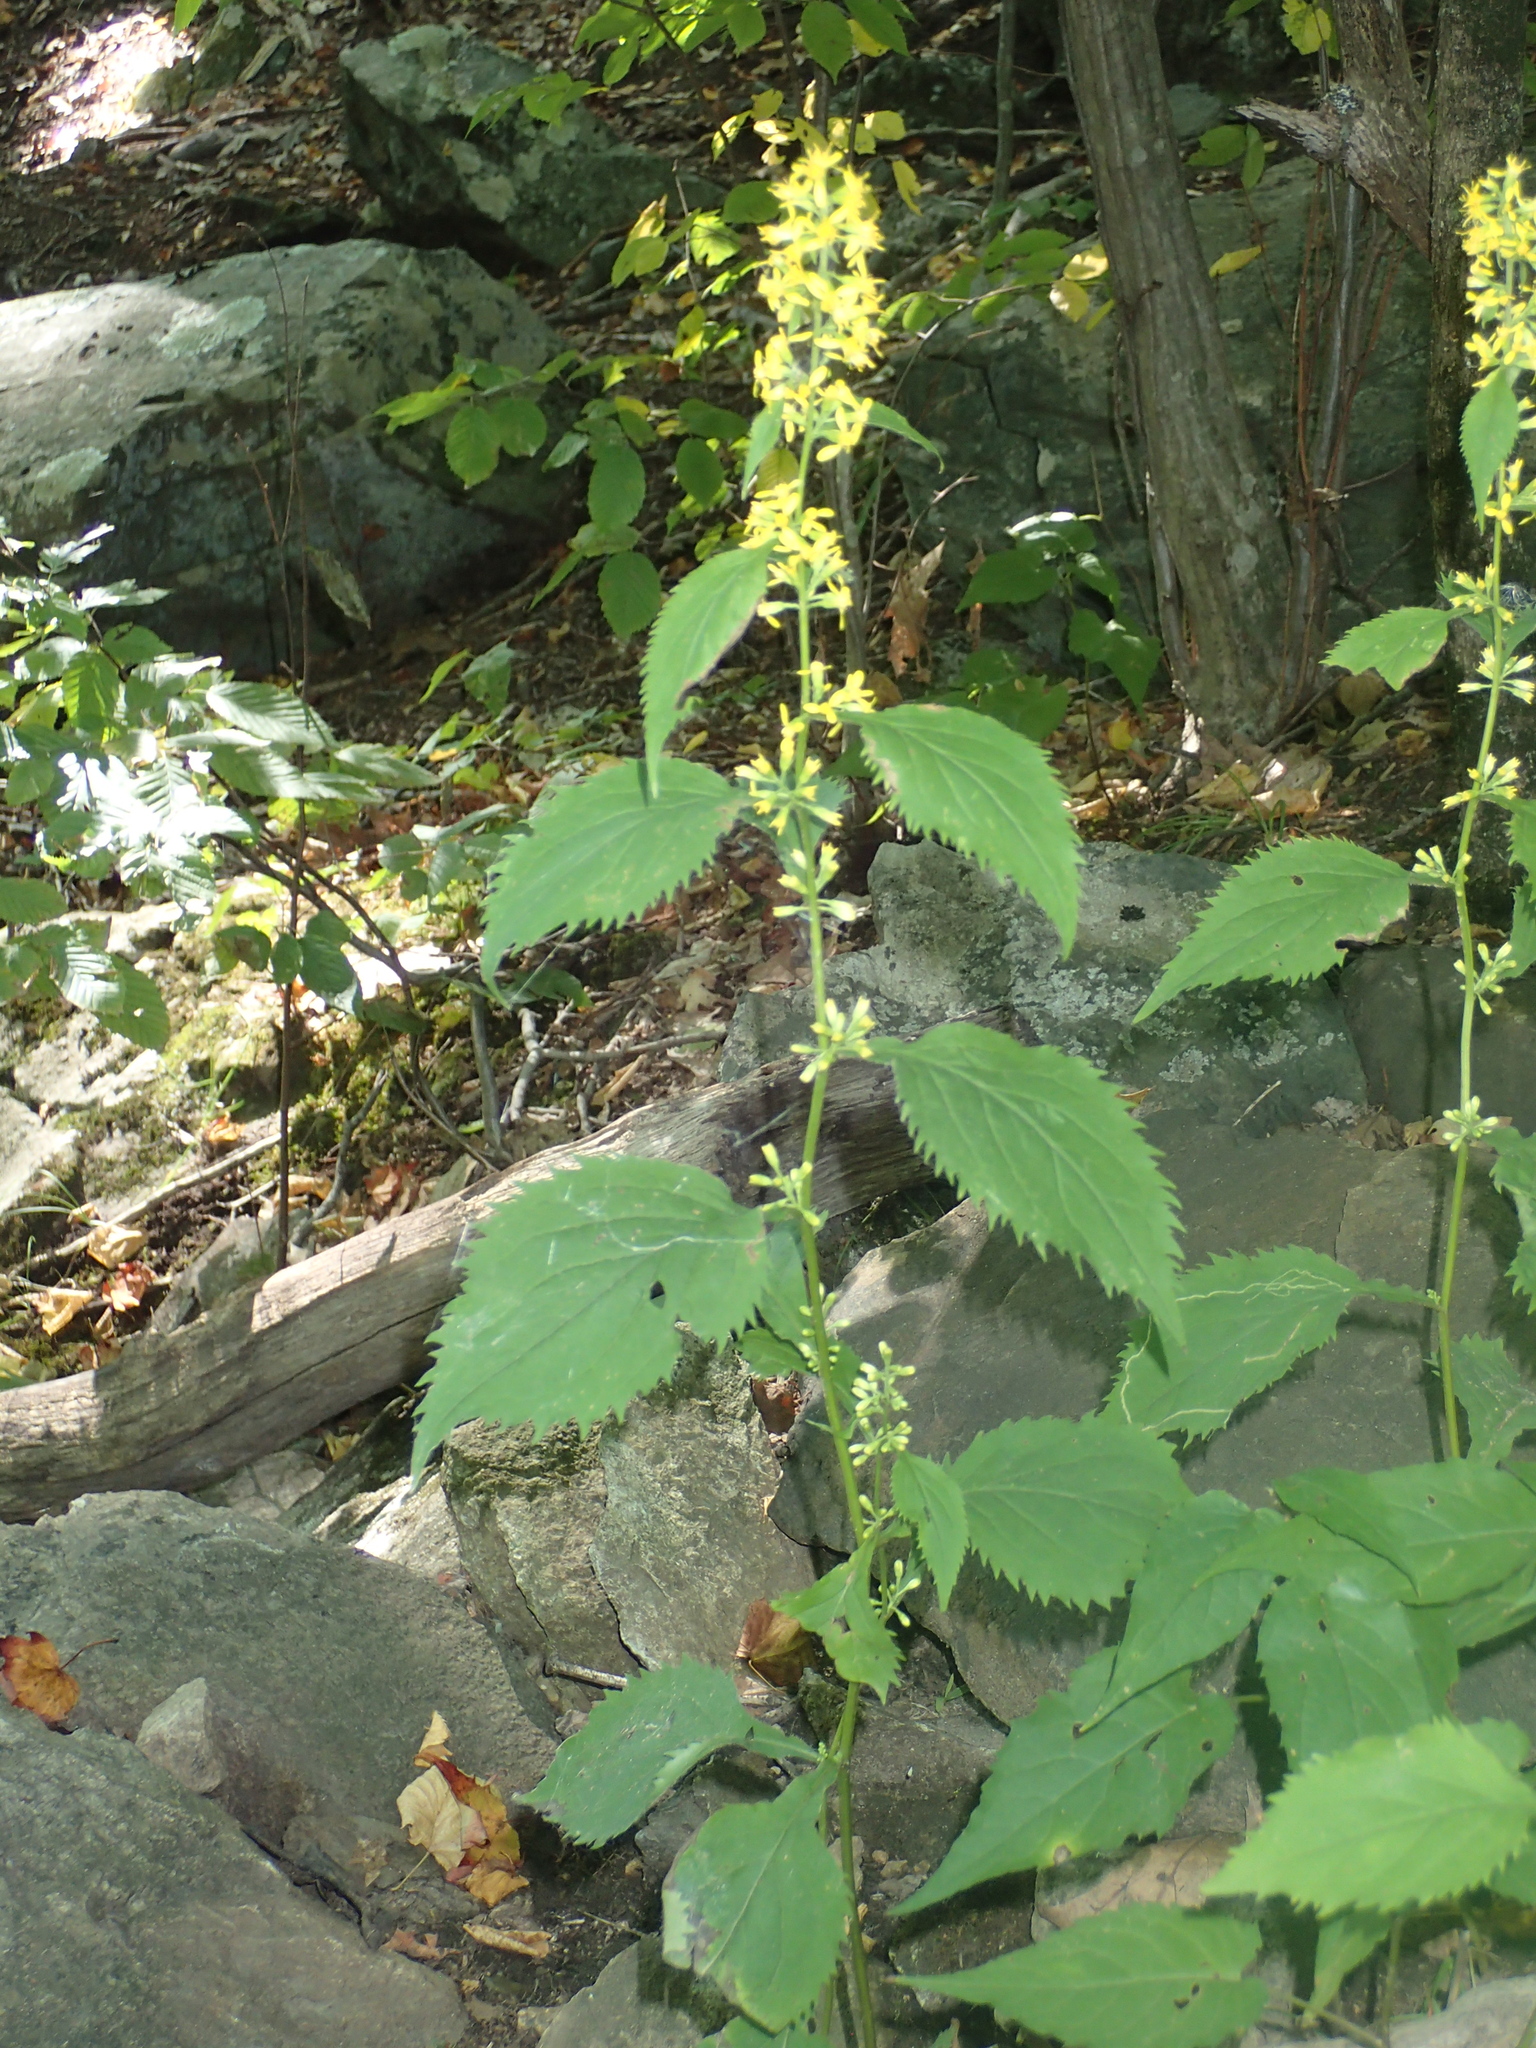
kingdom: Plantae
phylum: Tracheophyta
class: Magnoliopsida
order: Asterales
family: Asteraceae
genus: Solidago
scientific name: Solidago flexicaulis
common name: Zig-zag goldenrod
